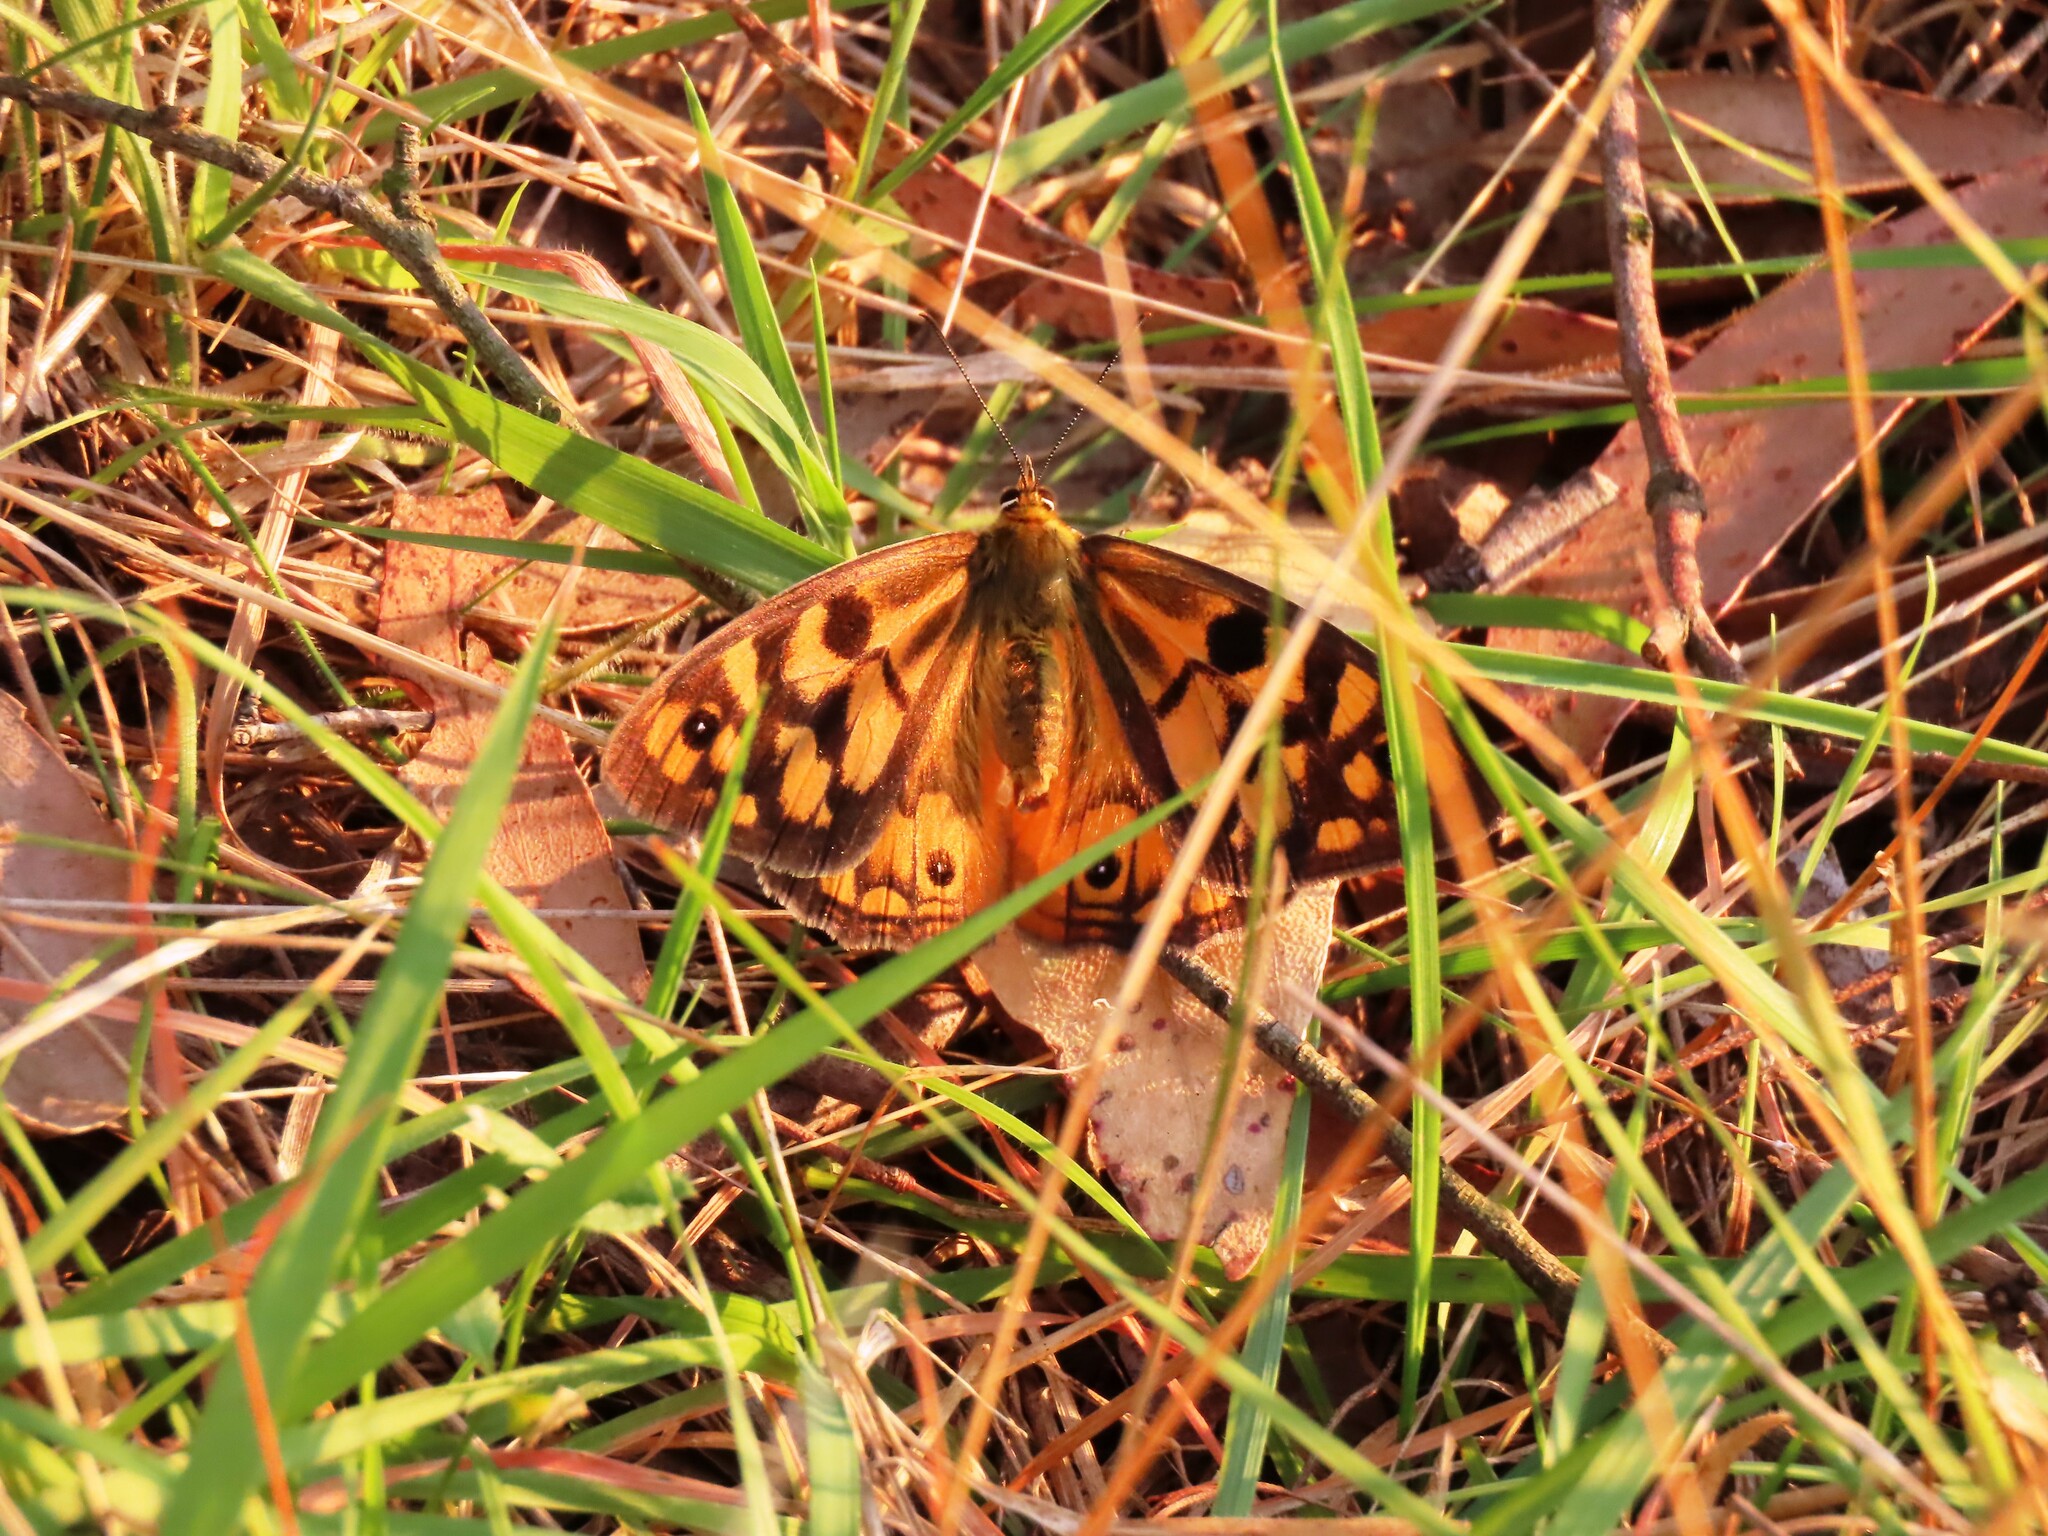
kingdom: Animalia
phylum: Arthropoda
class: Insecta
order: Lepidoptera
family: Nymphalidae
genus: Heteronympha
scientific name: Heteronympha penelope
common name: Shouldered brown
